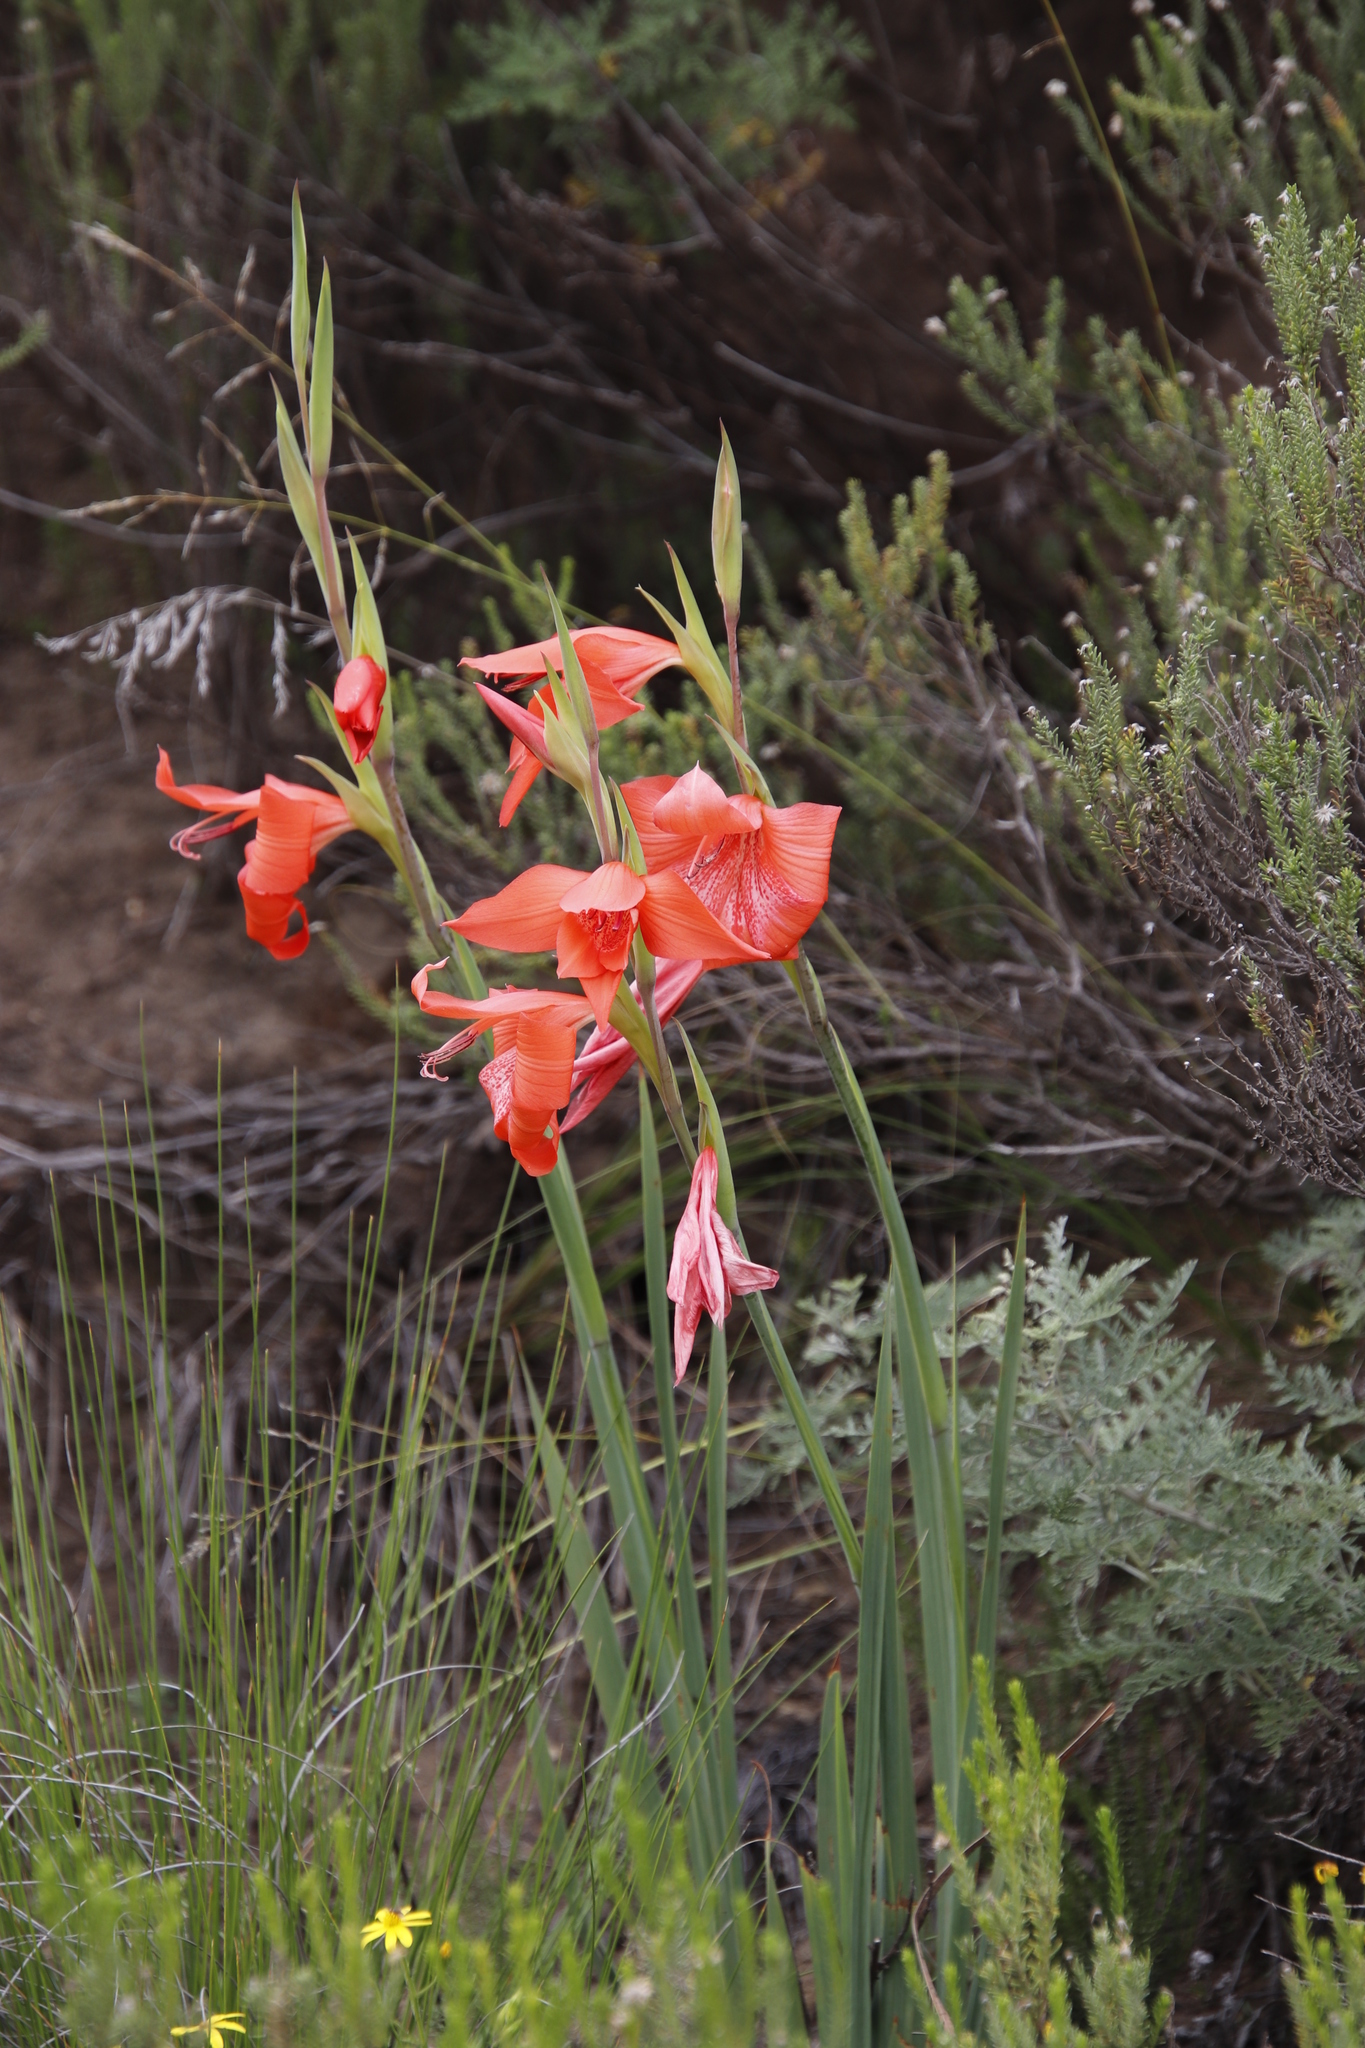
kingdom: Plantae
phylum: Tracheophyta
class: Liliopsida
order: Asparagales
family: Iridaceae
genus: Gladiolus
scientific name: Gladiolus saundersii
